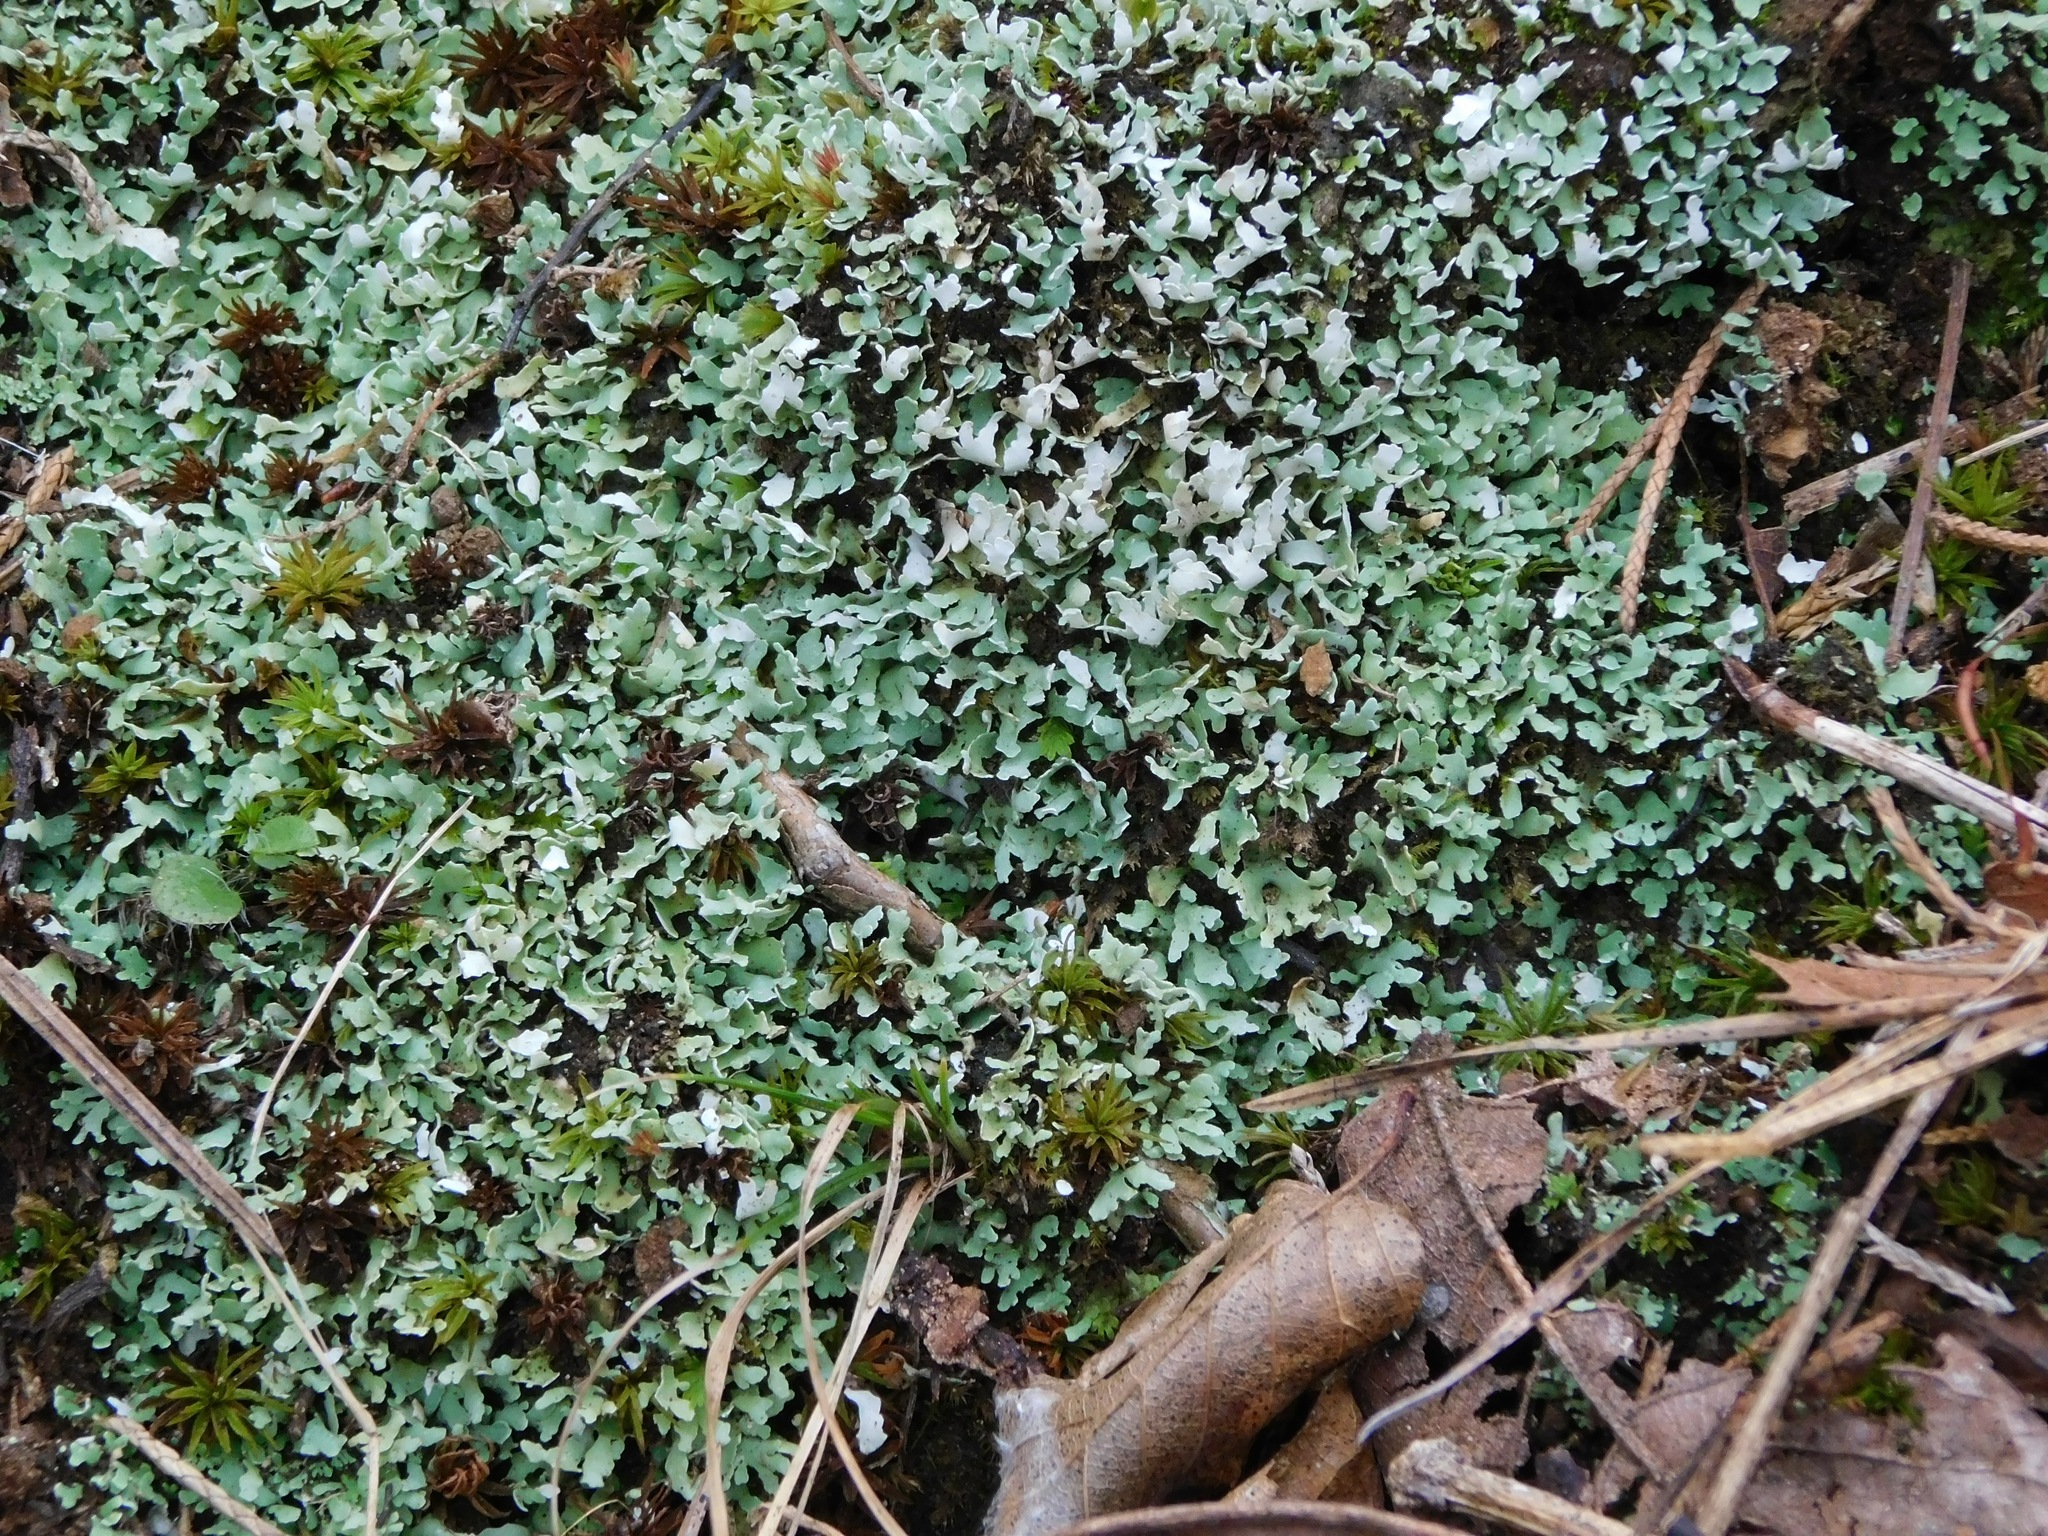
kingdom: Fungi
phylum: Ascomycota
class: Lecanoromycetes
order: Lecanorales
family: Cladoniaceae
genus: Cladonia
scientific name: Cladonia apodocarpa
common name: Stalkless cladonia
